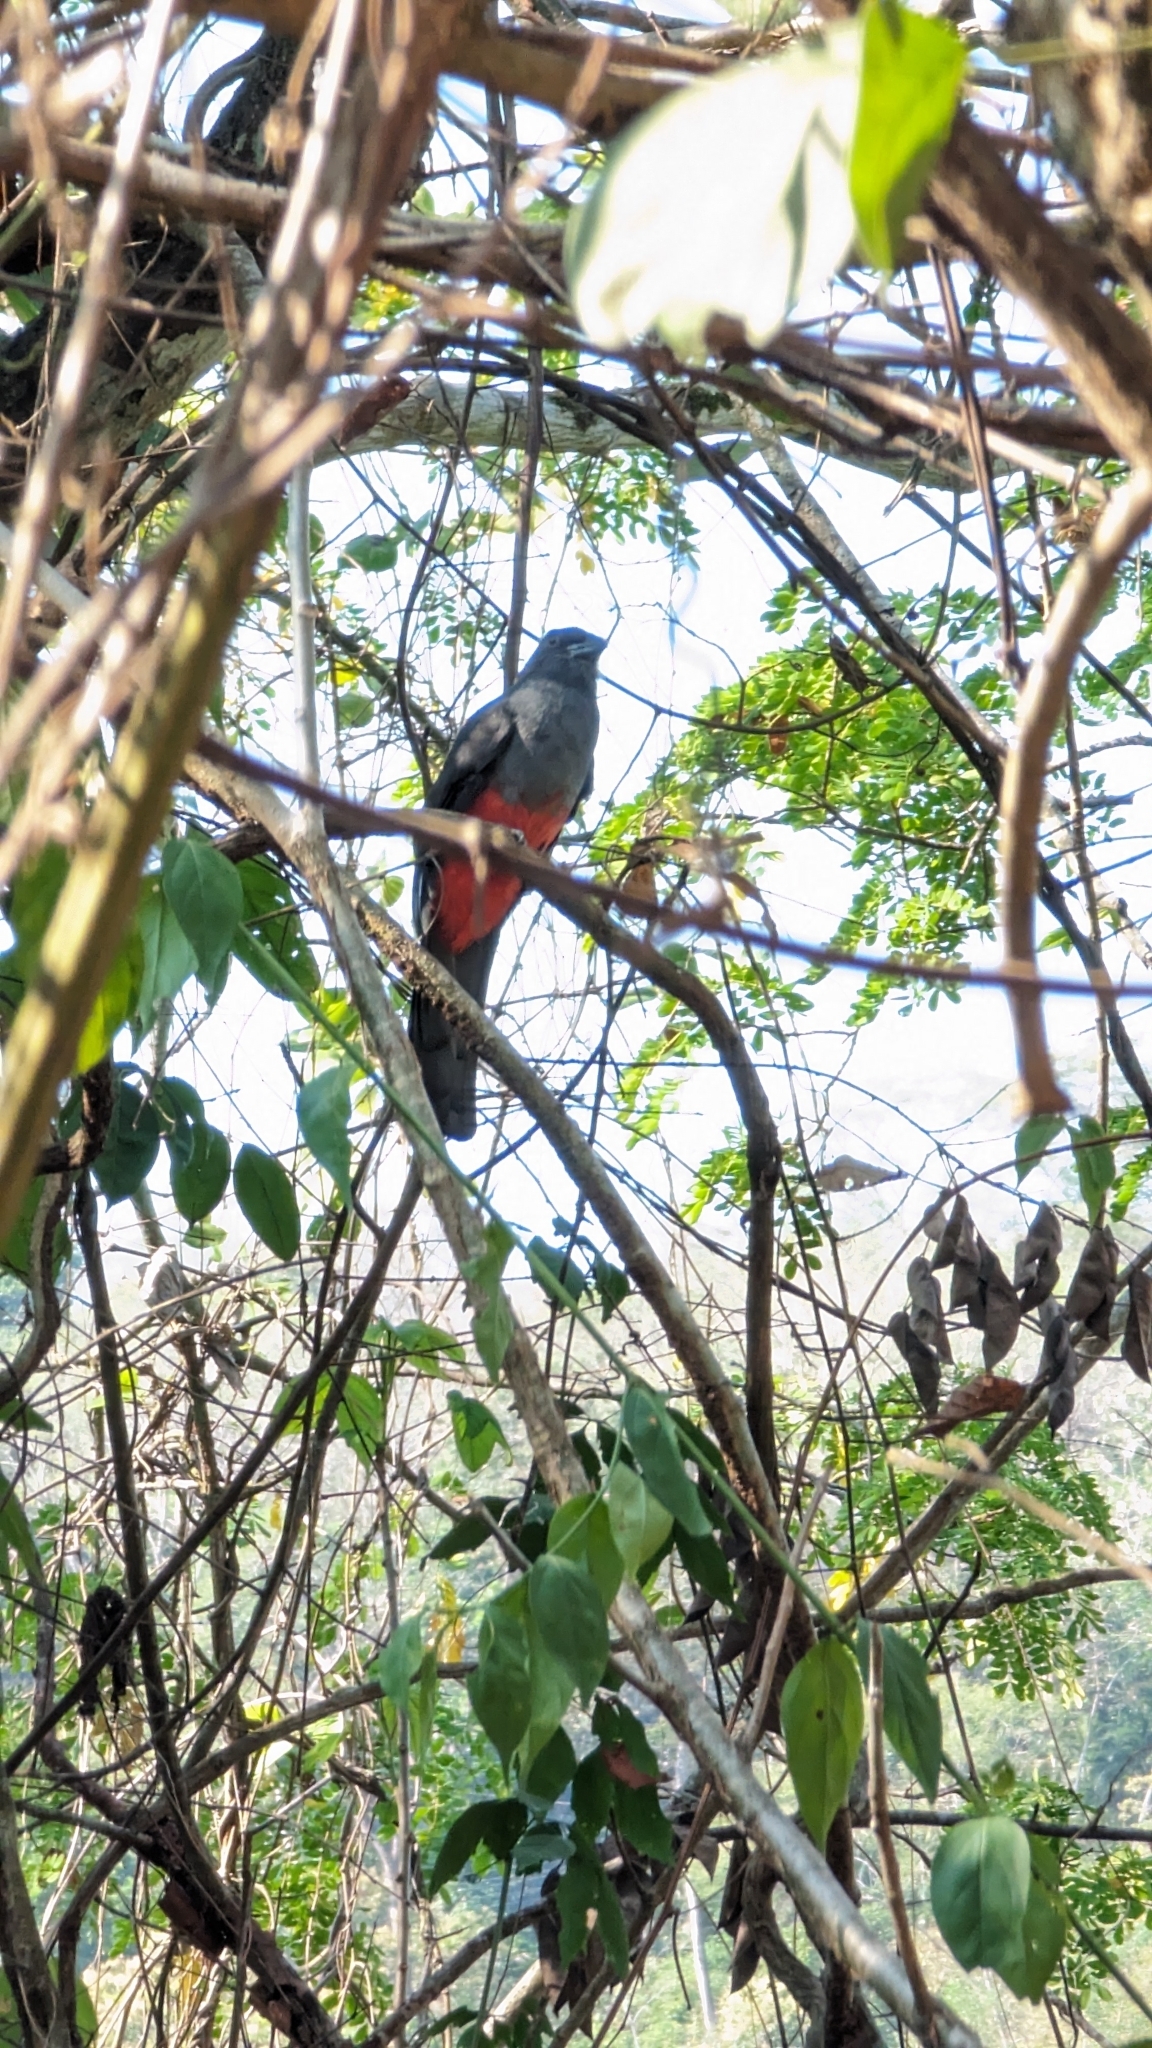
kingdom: Animalia
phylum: Chordata
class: Aves
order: Trogoniformes
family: Trogonidae
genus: Trogon
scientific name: Trogon massena
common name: Slaty-tailed trogon
